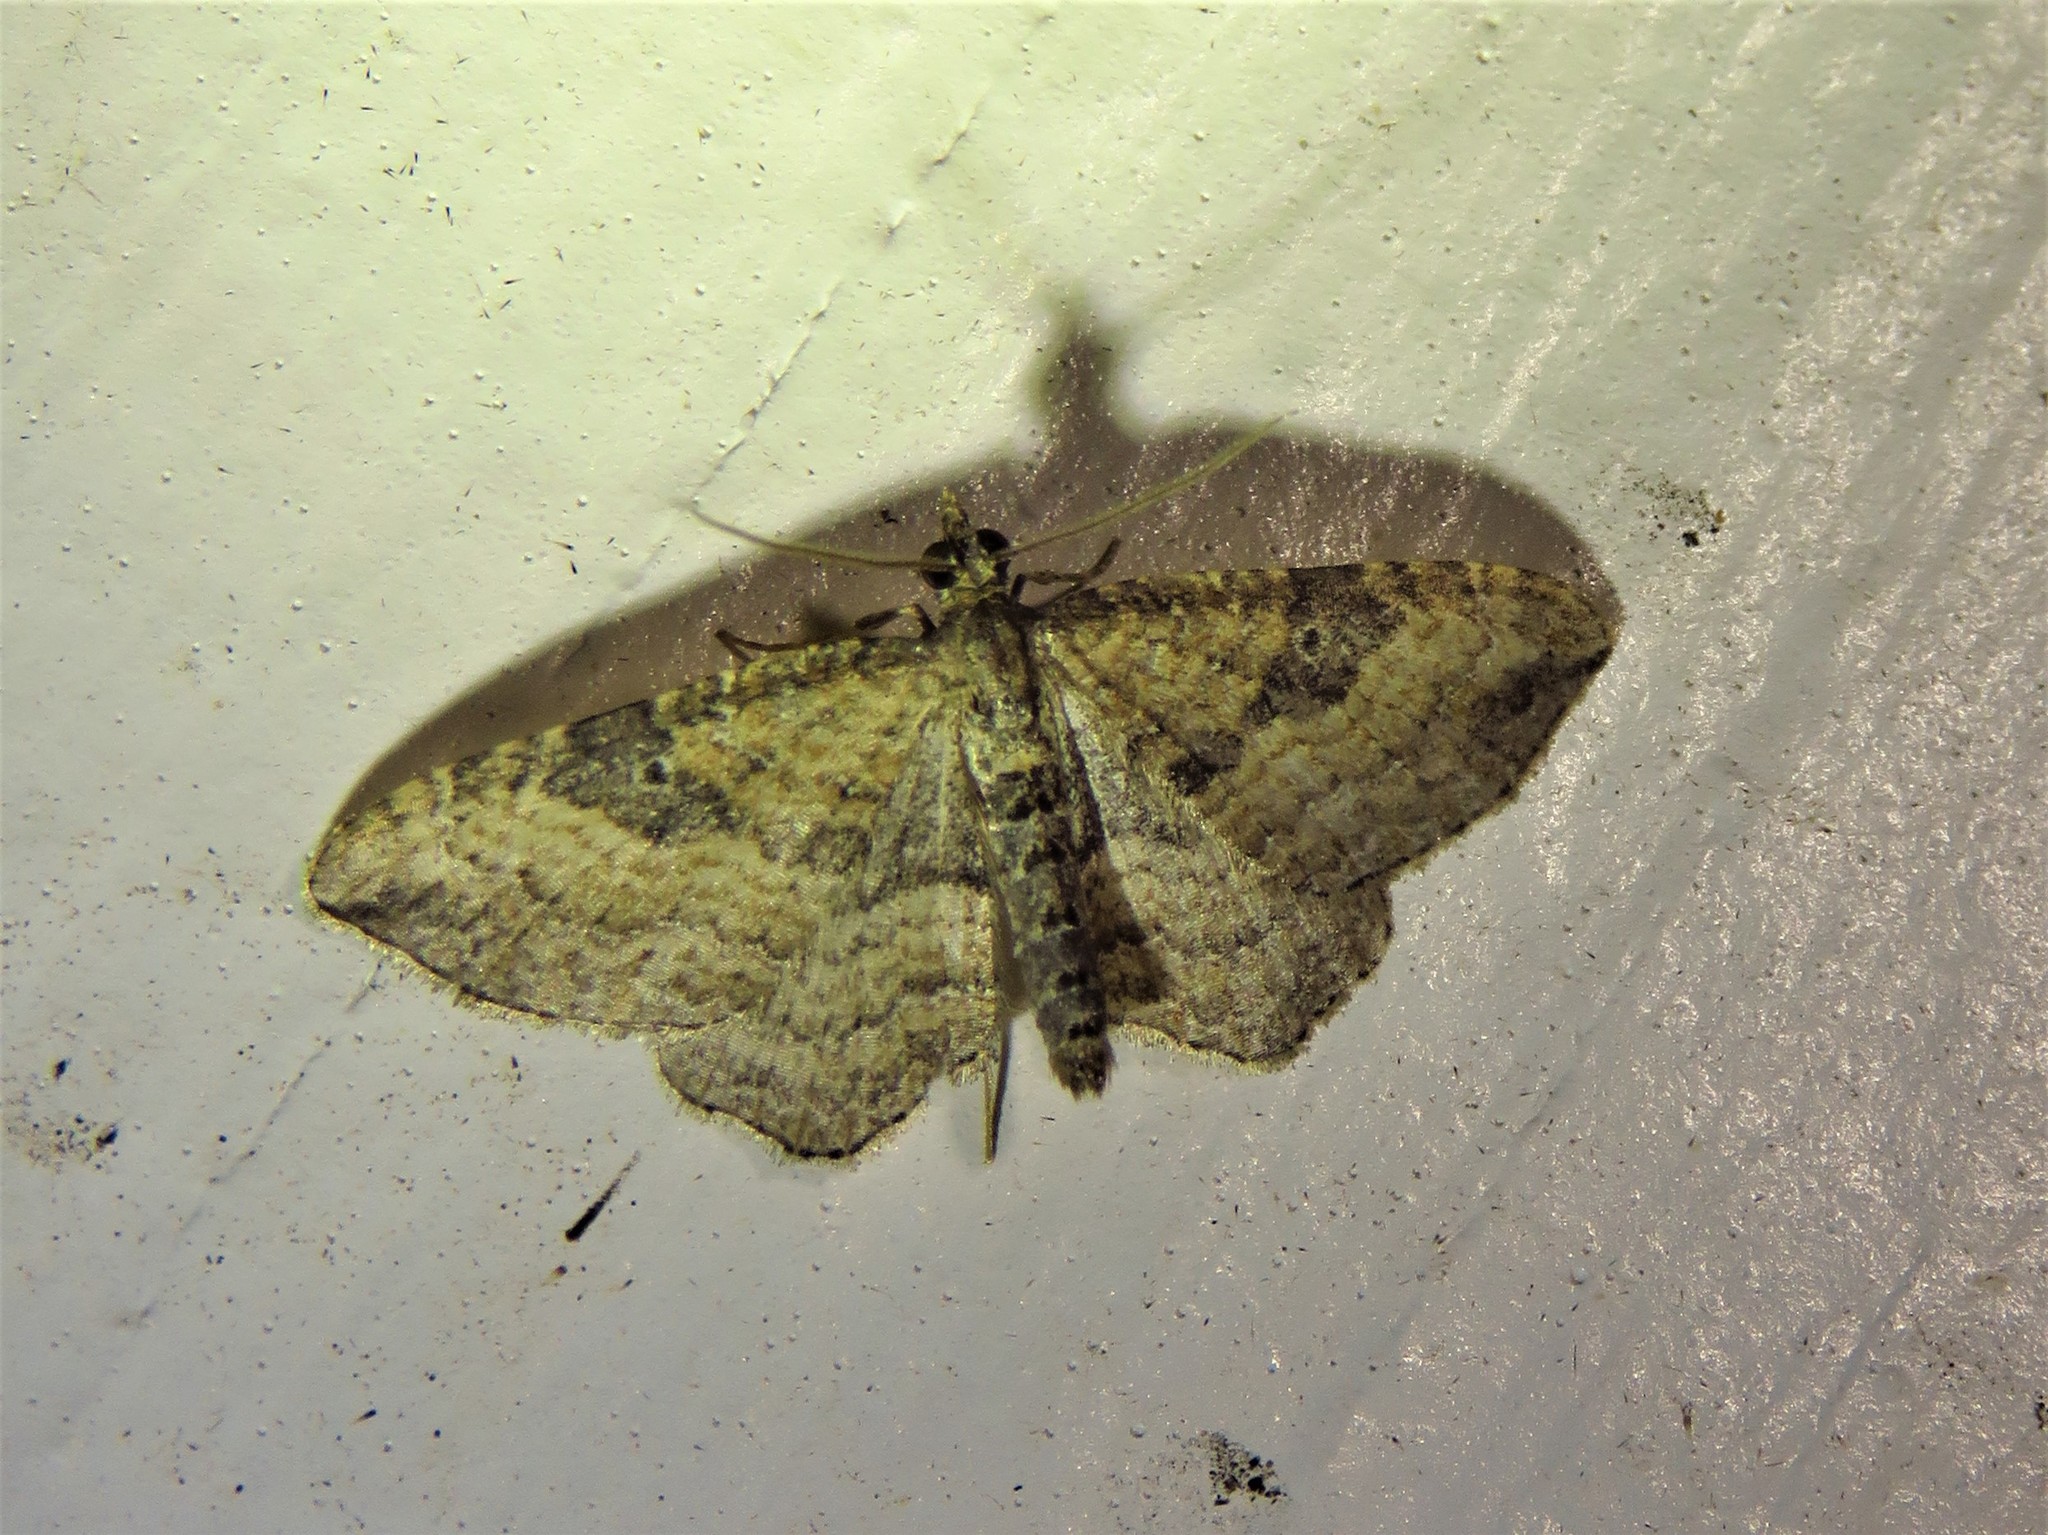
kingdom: Animalia
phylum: Arthropoda
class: Insecta
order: Lepidoptera
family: Geometridae
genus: Orthonama
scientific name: Orthonama obstipata
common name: The gem
